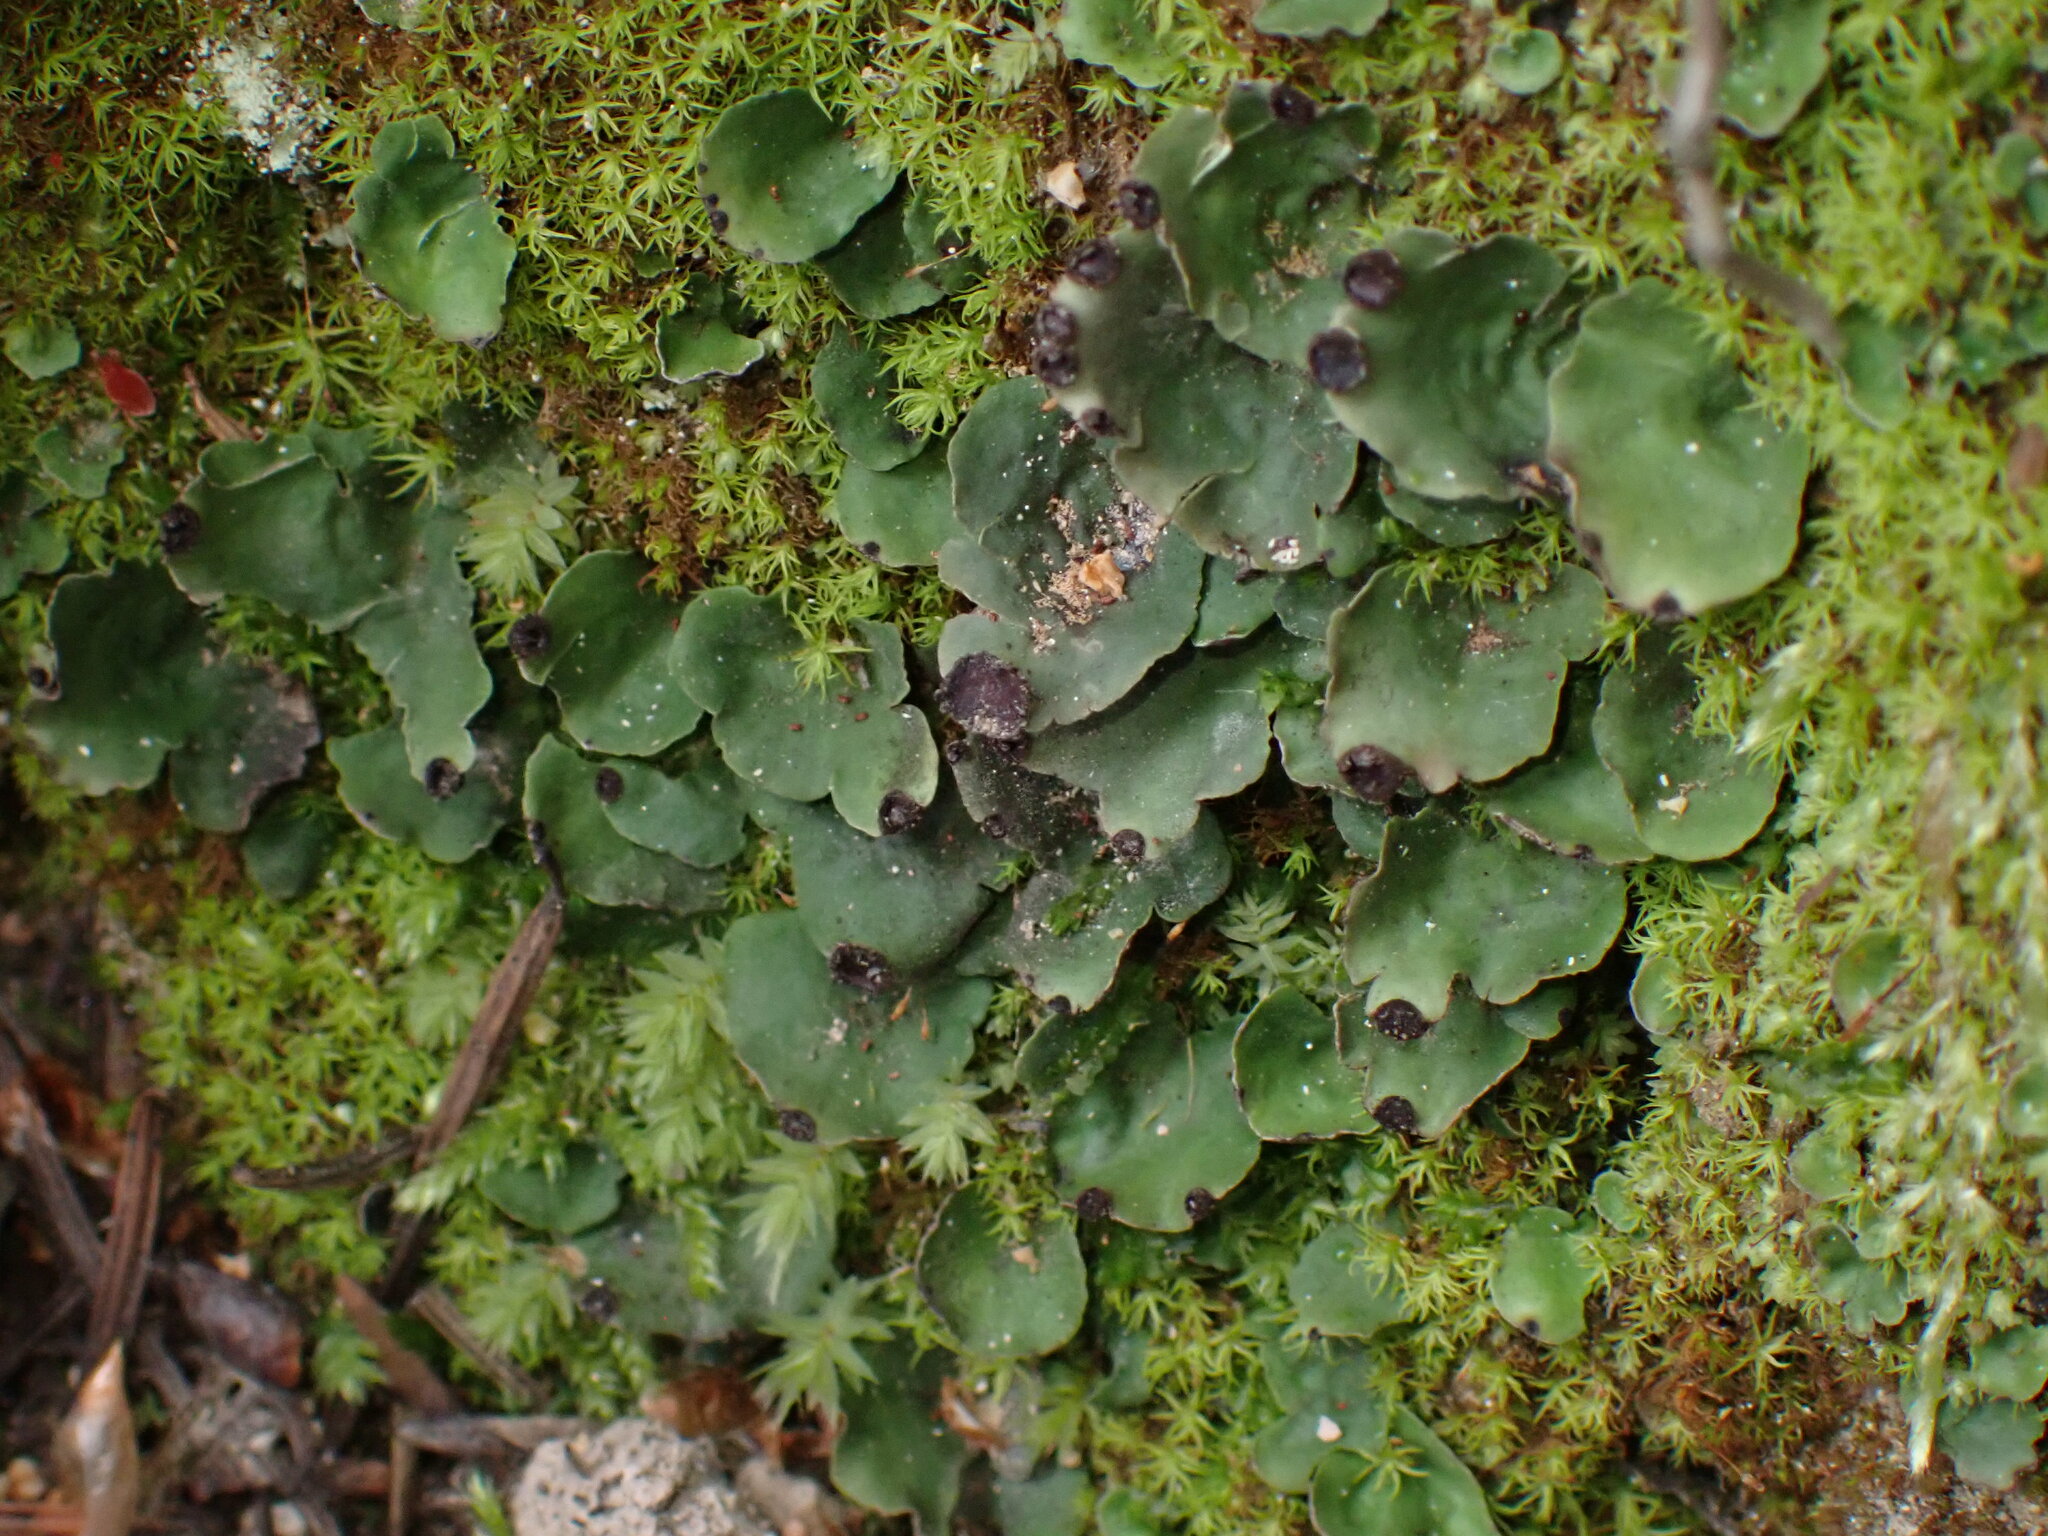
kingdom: Fungi
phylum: Ascomycota
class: Lecanoromycetes
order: Peltigerales
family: Peltigeraceae
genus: Peltigera
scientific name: Peltigera venosa
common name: Pixie gowns lichen
